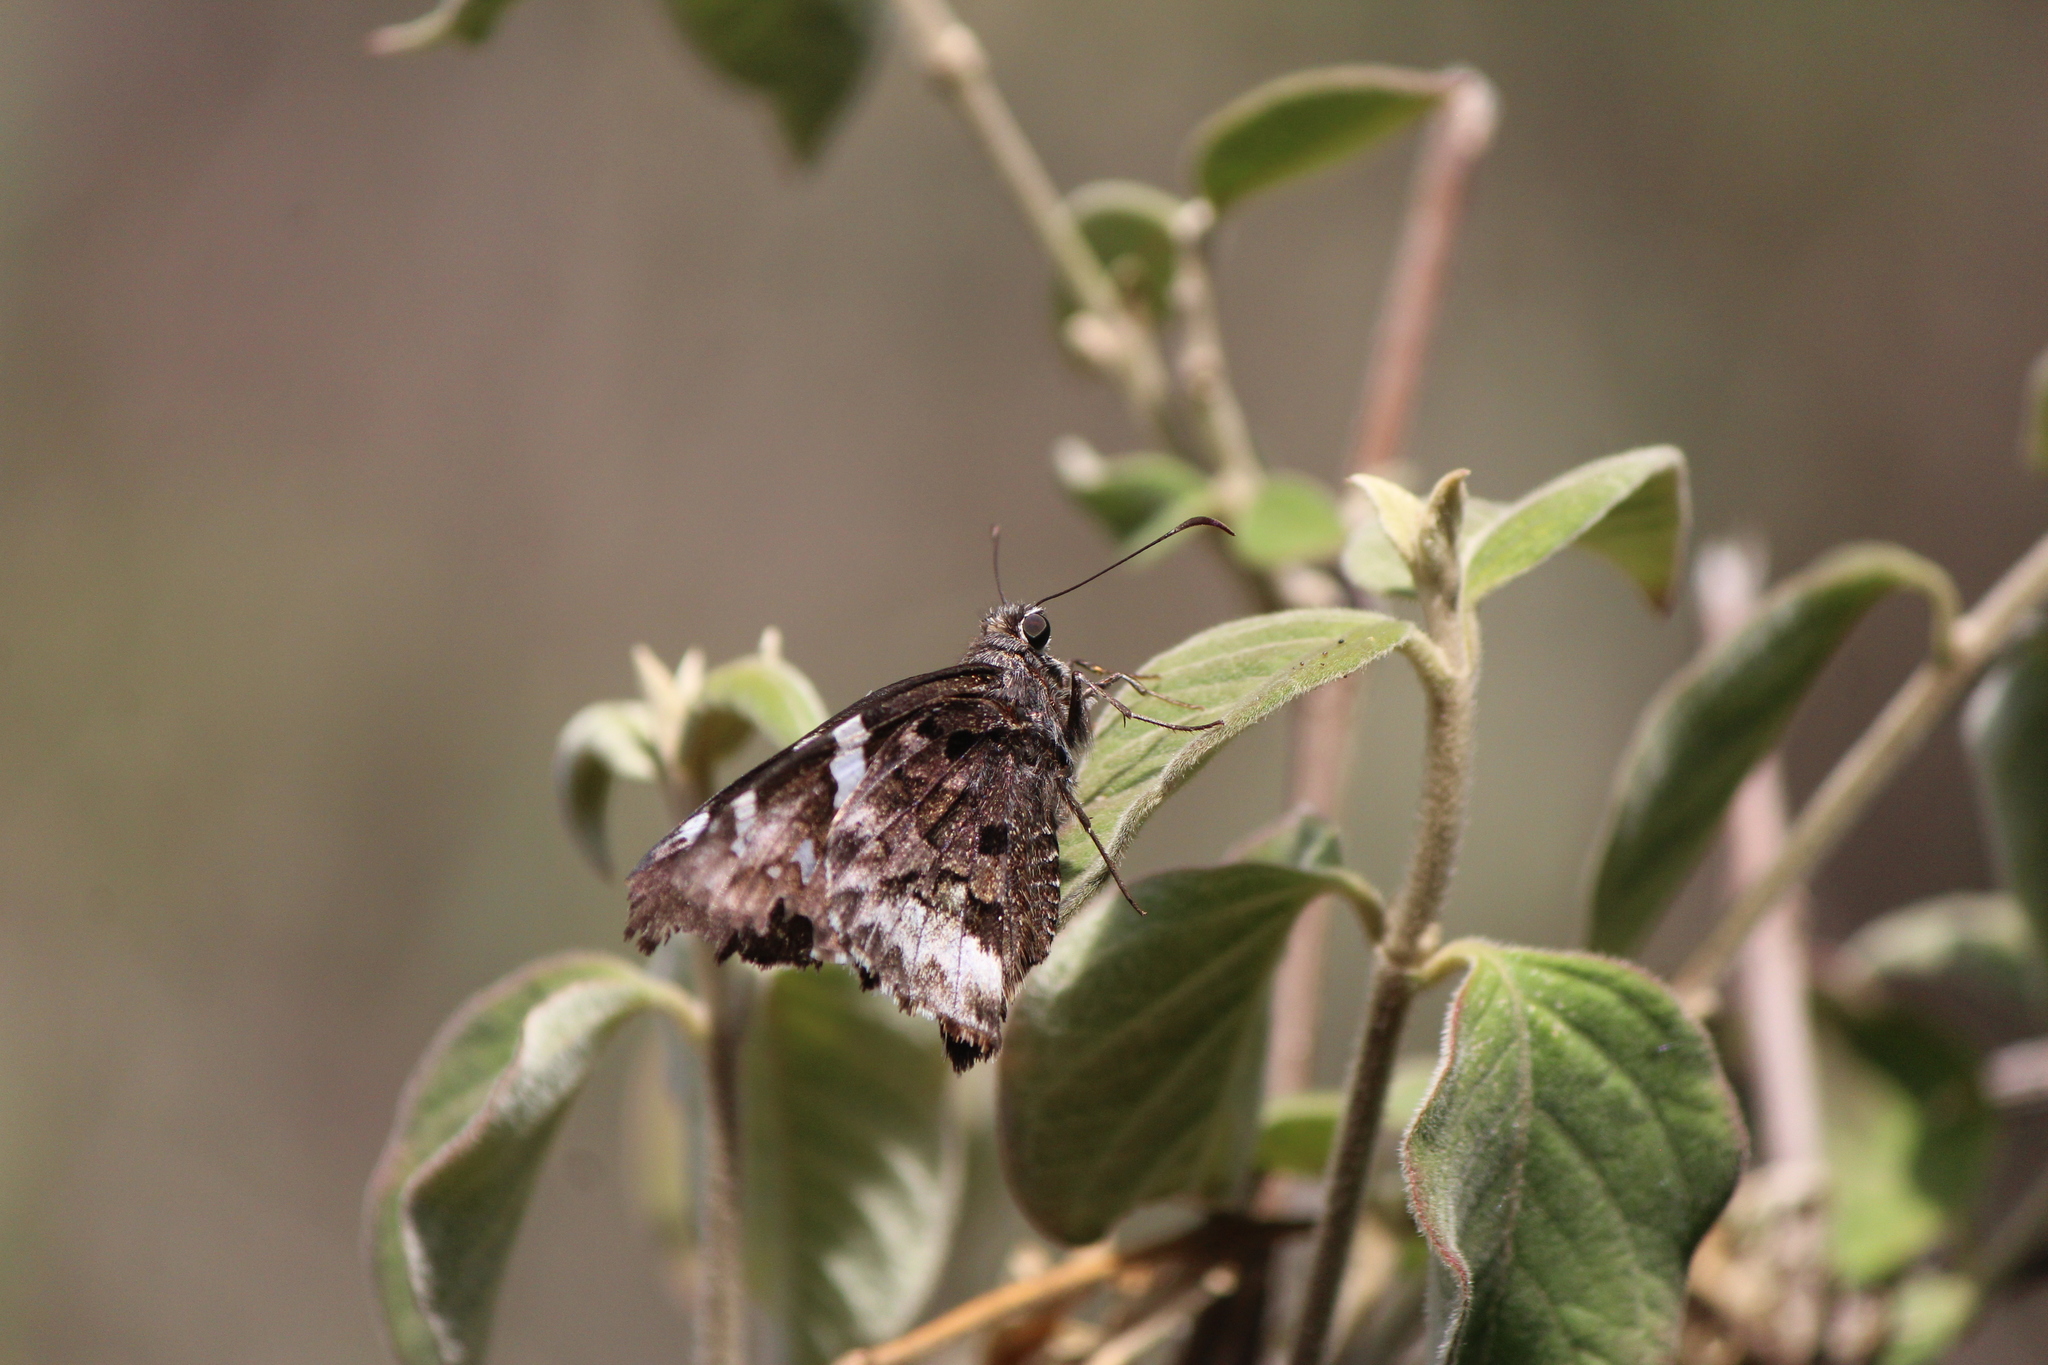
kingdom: Animalia
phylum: Arthropoda
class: Insecta
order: Lepidoptera
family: Hesperiidae
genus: Codatractus
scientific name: Codatractus bryaxis
